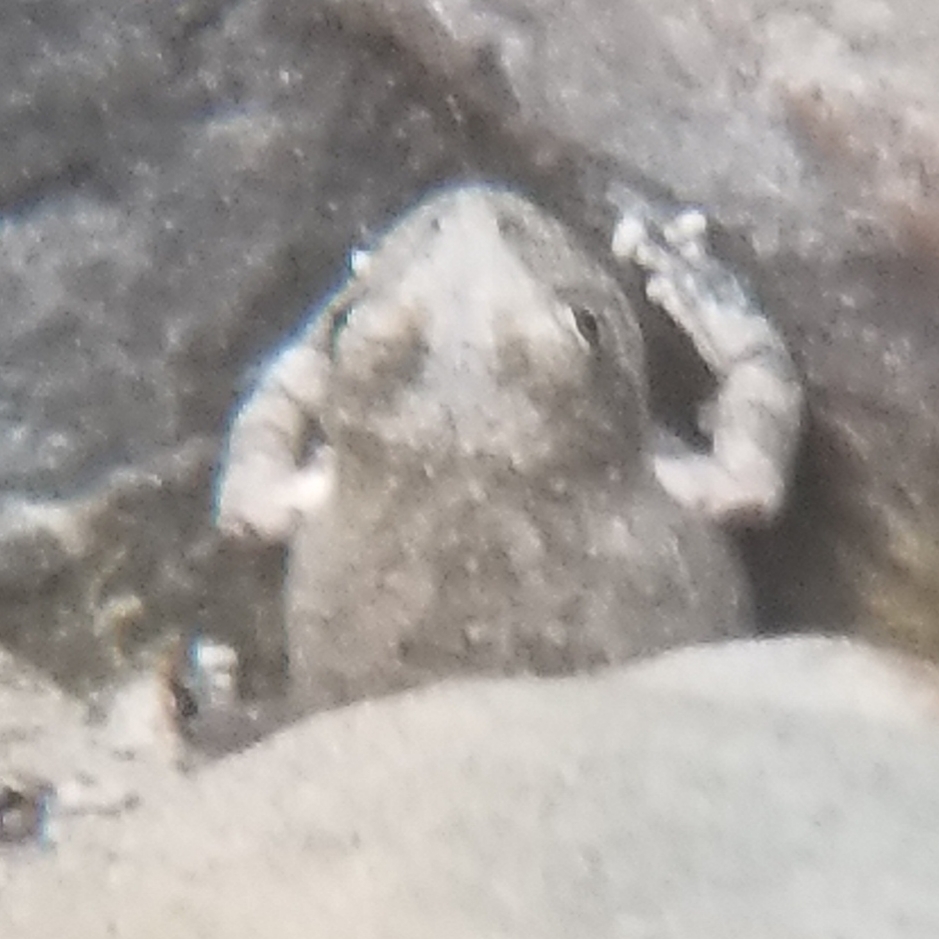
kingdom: Animalia
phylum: Chordata
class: Amphibia
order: Anura
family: Hylidae
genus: Pseudacris
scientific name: Pseudacris cadaverina
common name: California chorus frog
